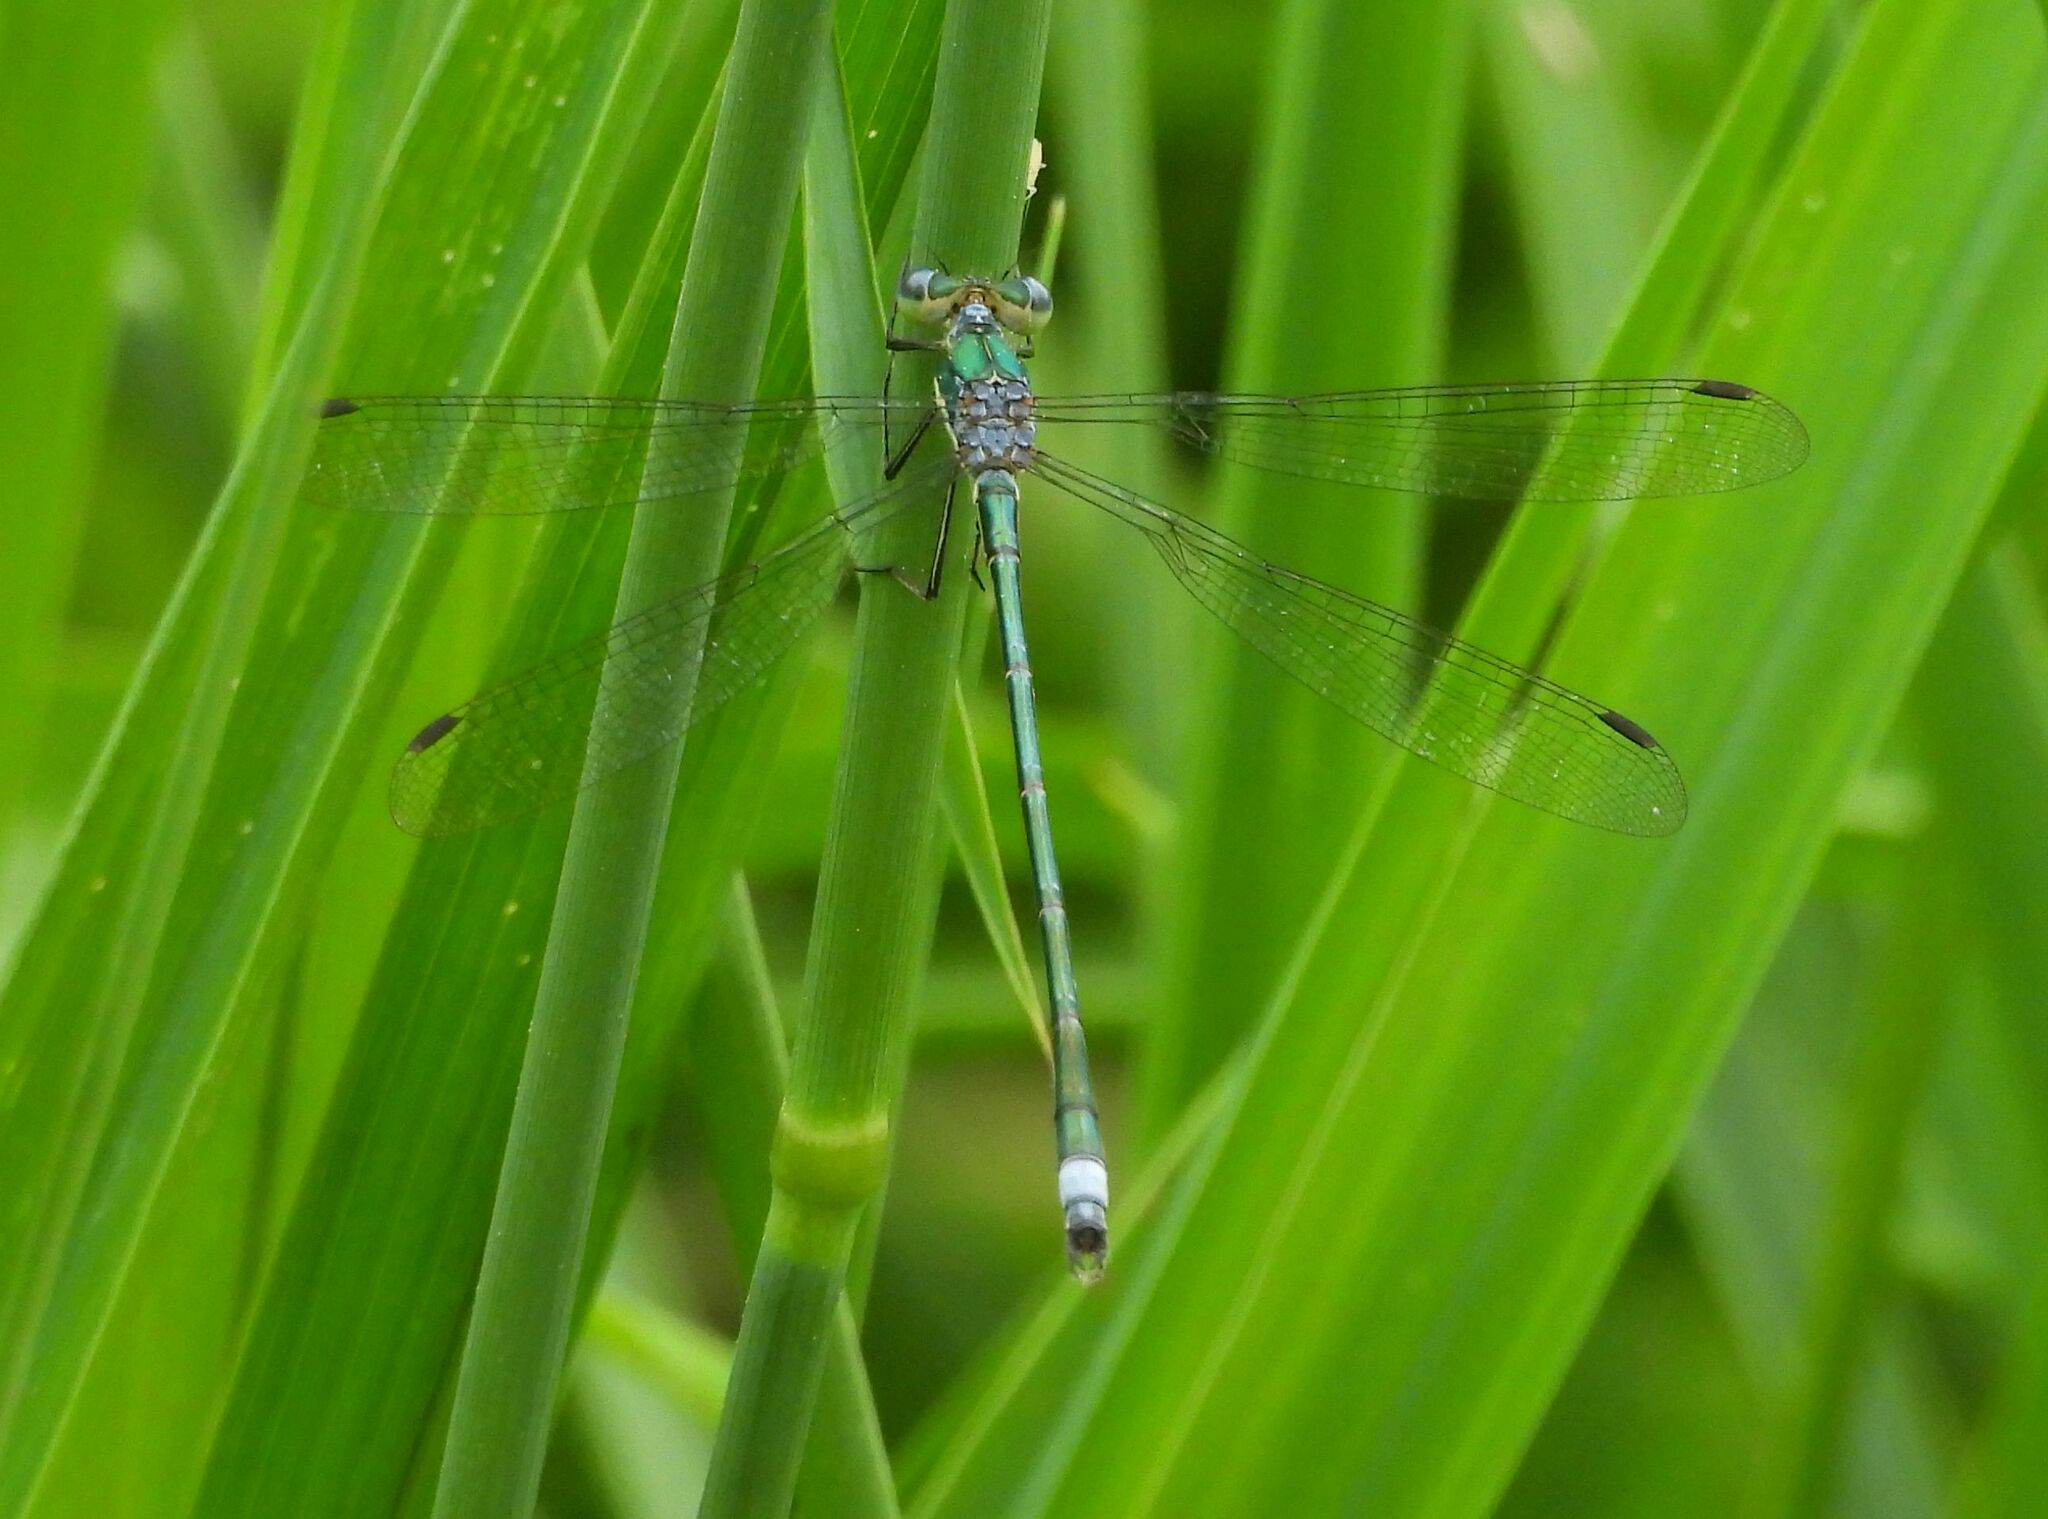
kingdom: Animalia
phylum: Arthropoda
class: Insecta
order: Odonata
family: Lestidae
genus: Lestes
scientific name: Lestes inaequalis
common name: Elegant spreadwing
